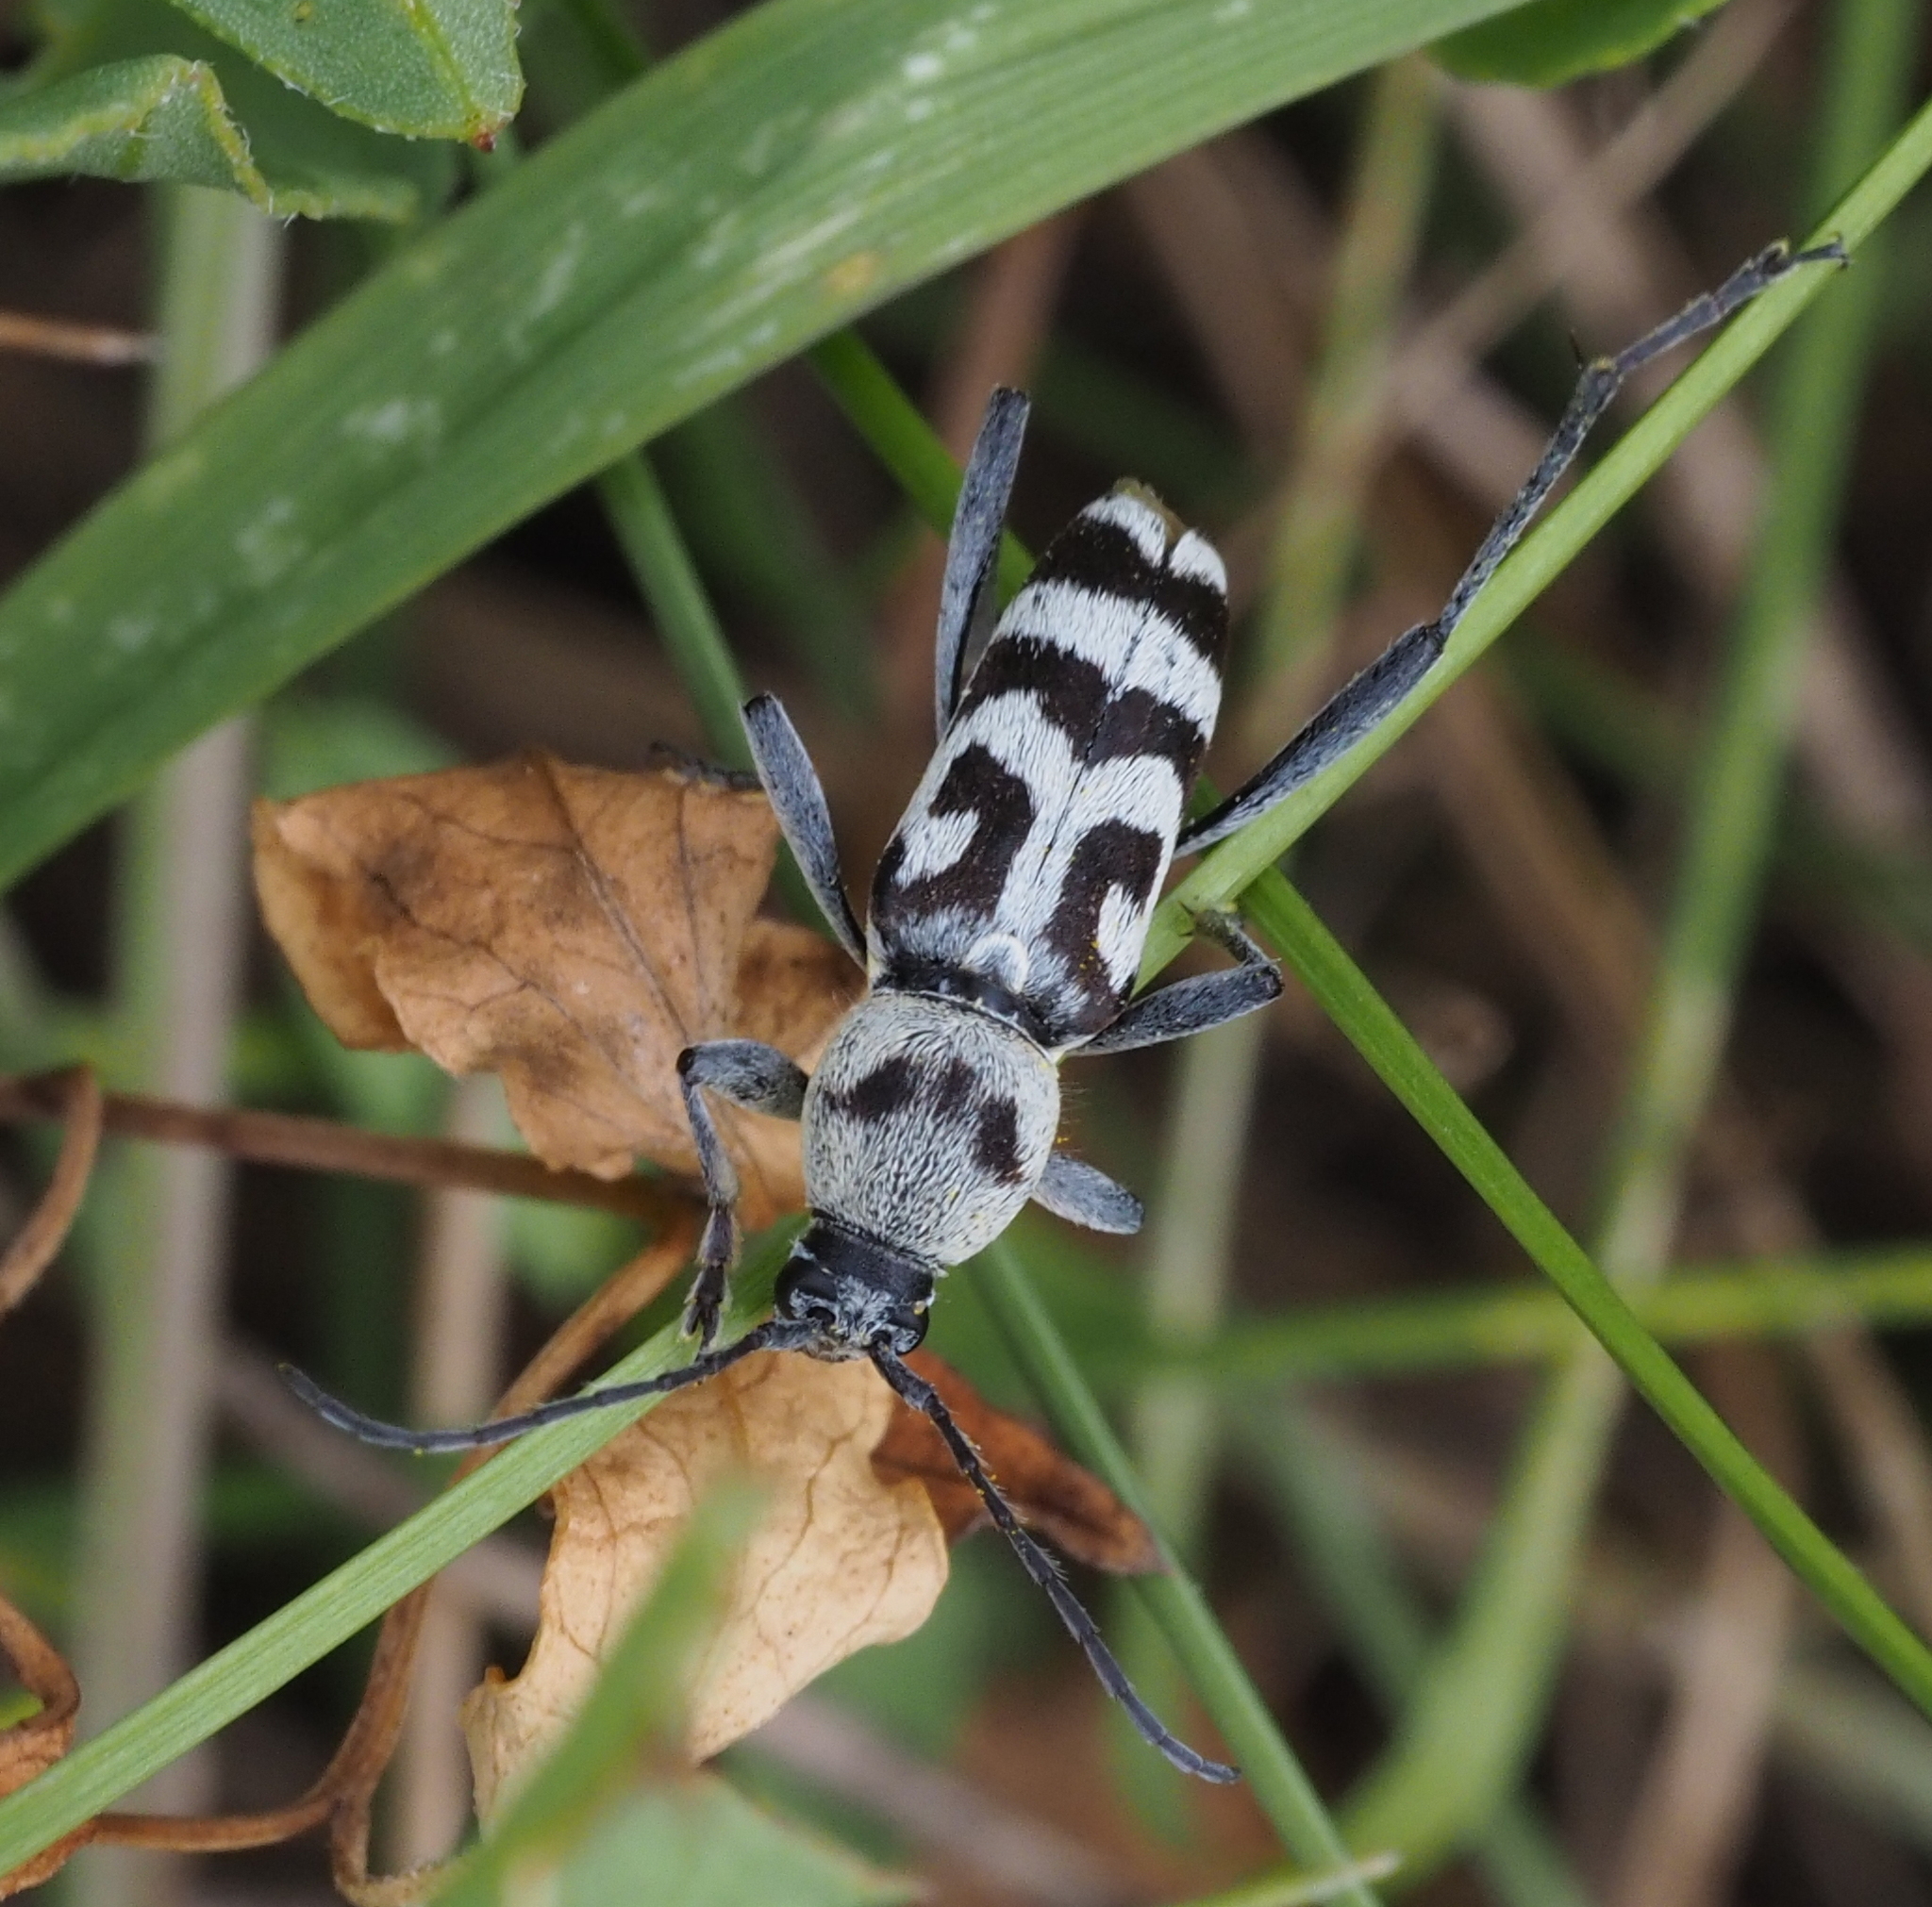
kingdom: Animalia
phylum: Arthropoda
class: Insecta
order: Coleoptera
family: Cerambycidae
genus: Chlorophorus
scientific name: Chlorophorus varius
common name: Grape wood borer
